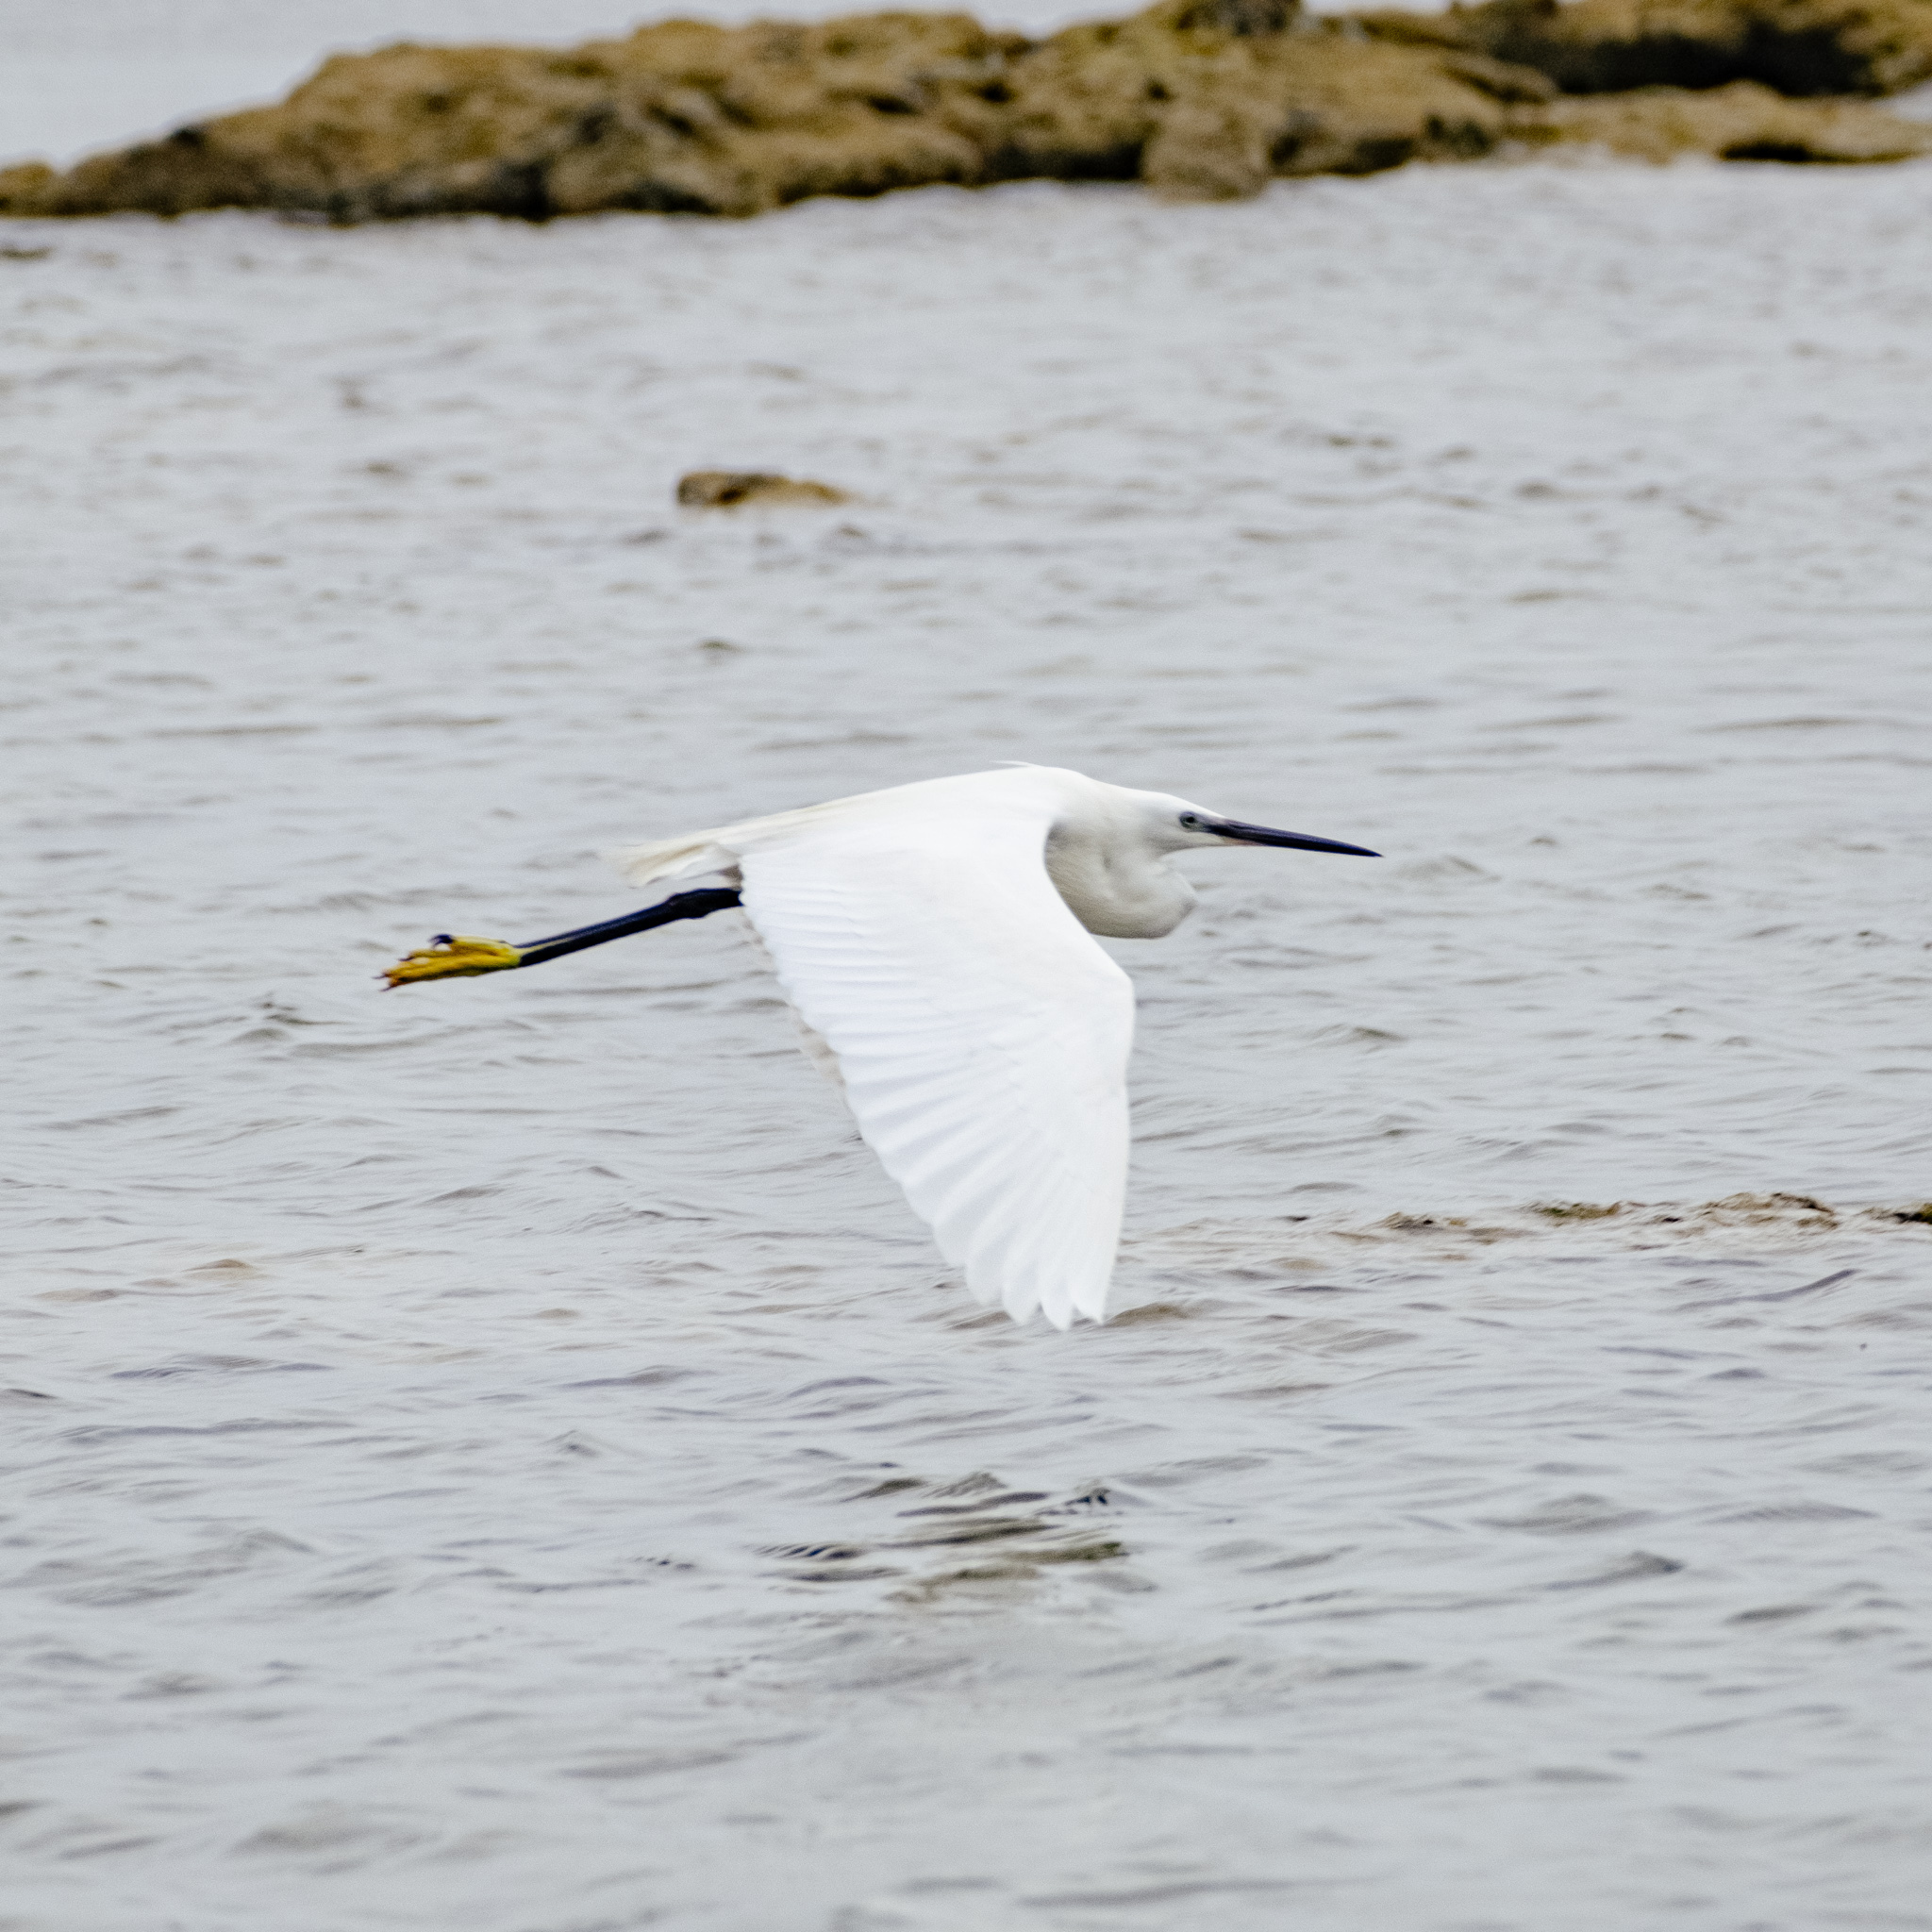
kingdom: Animalia
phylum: Chordata
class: Aves
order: Pelecaniformes
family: Ardeidae
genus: Egretta
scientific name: Egretta garzetta
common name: Little egret
